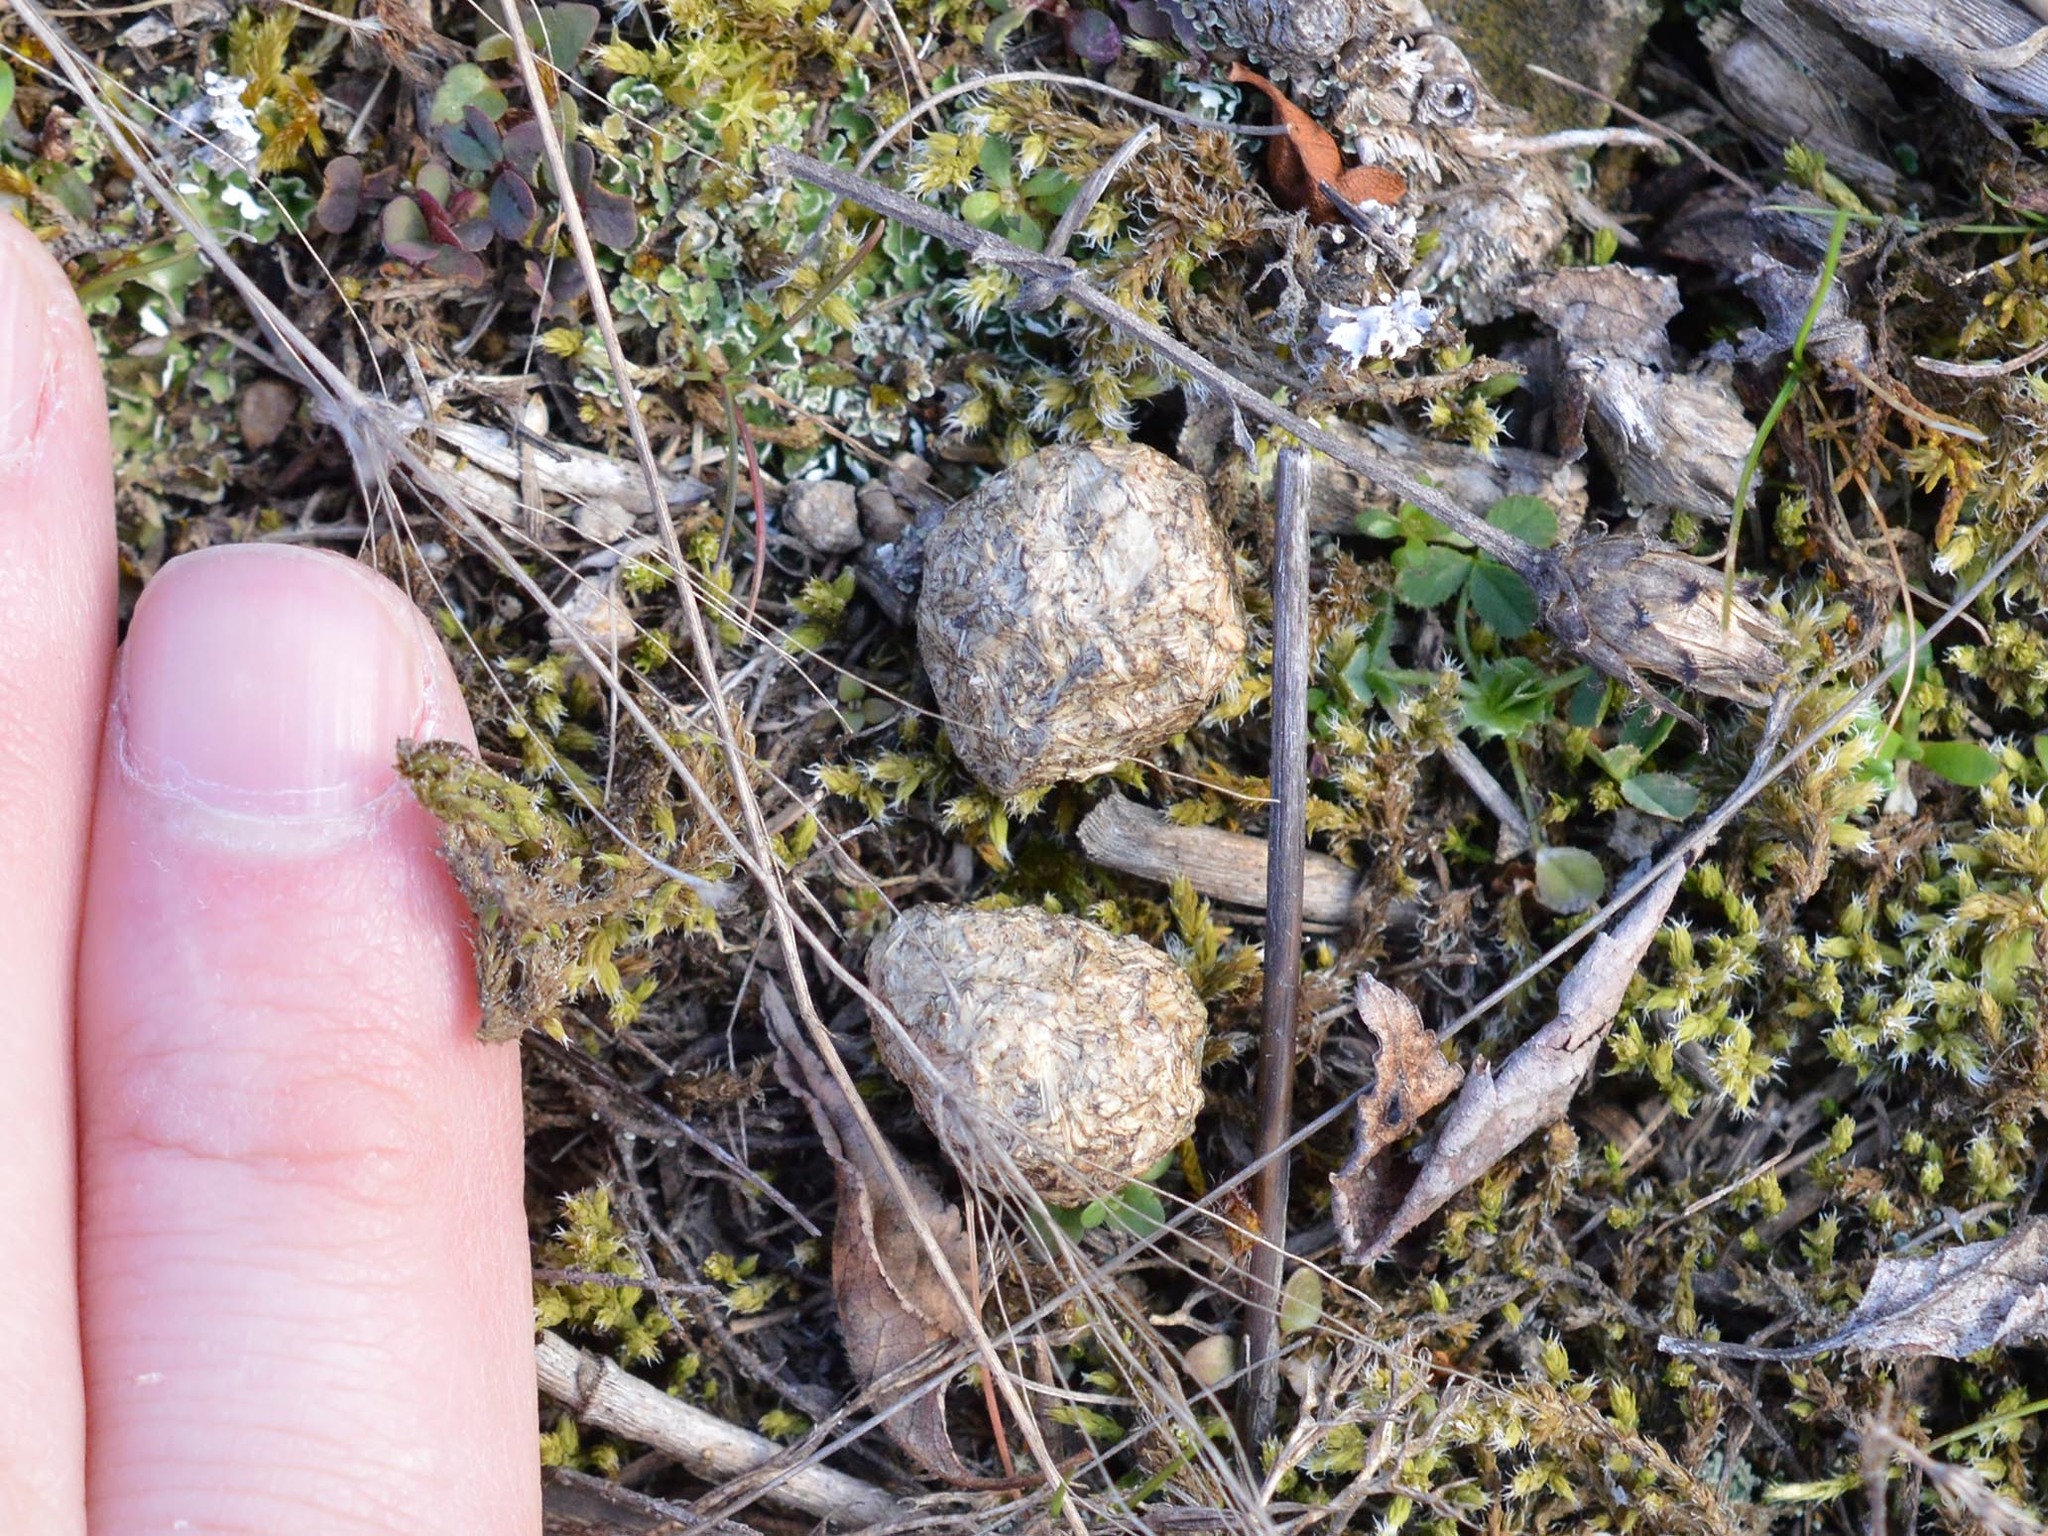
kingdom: Animalia
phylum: Chordata
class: Mammalia
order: Lagomorpha
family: Leporidae
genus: Lepus
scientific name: Lepus europaeus
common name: European hare
